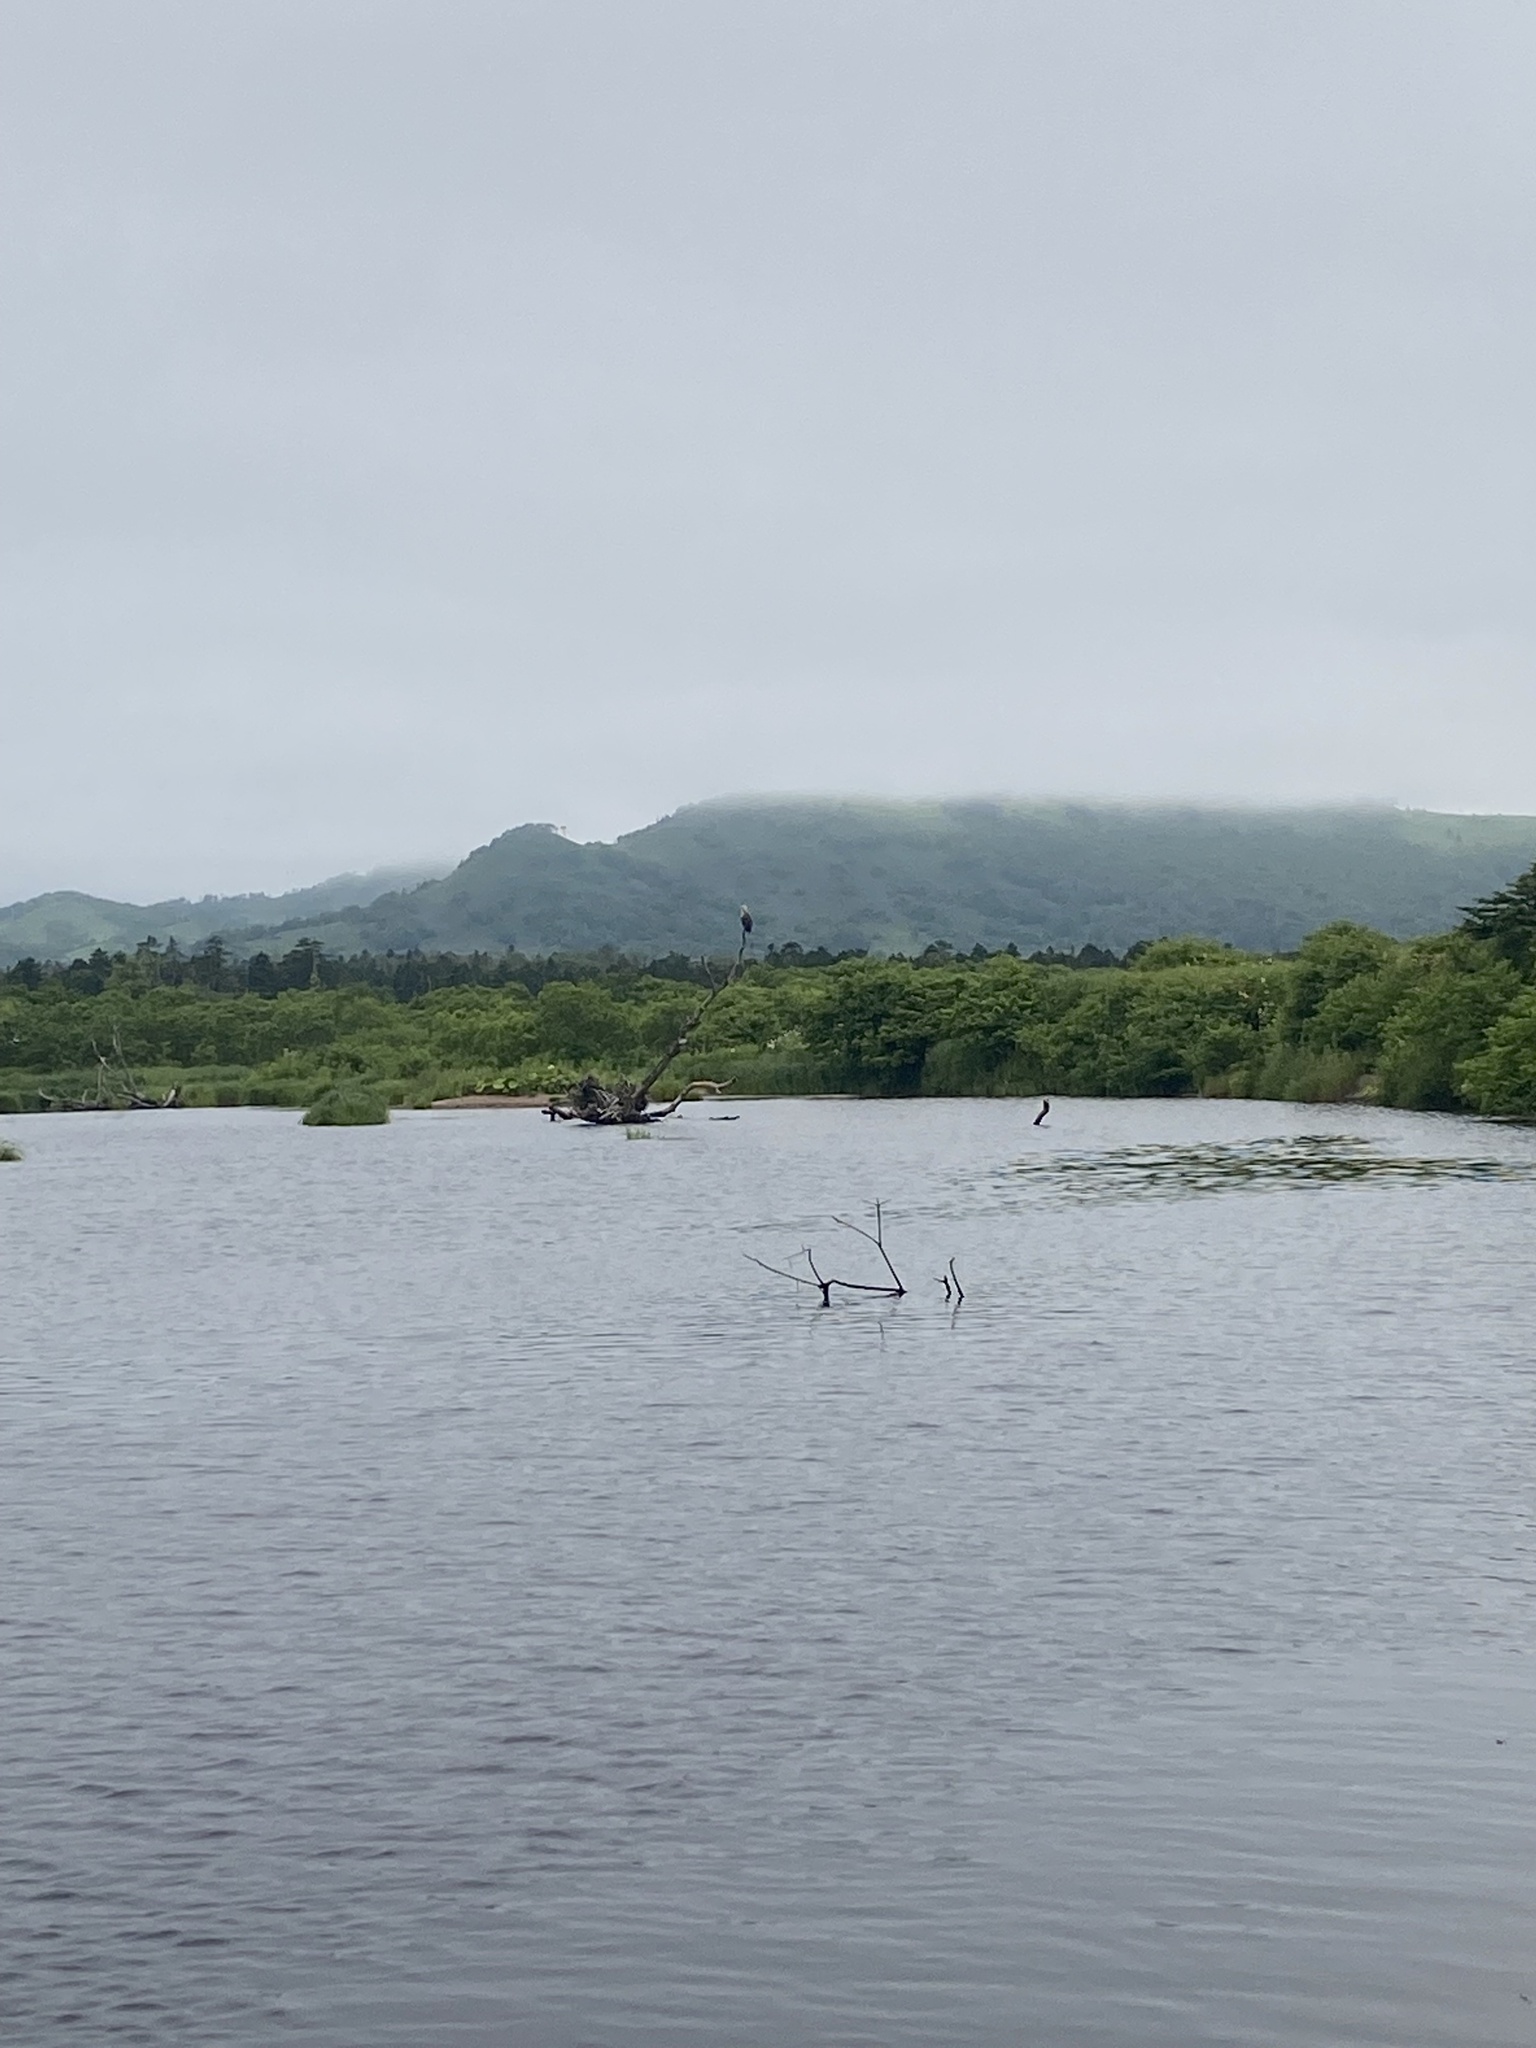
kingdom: Animalia
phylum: Chordata
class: Aves
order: Accipitriformes
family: Accipitridae
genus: Haliaeetus
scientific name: Haliaeetus albicilla
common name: White-tailed eagle
